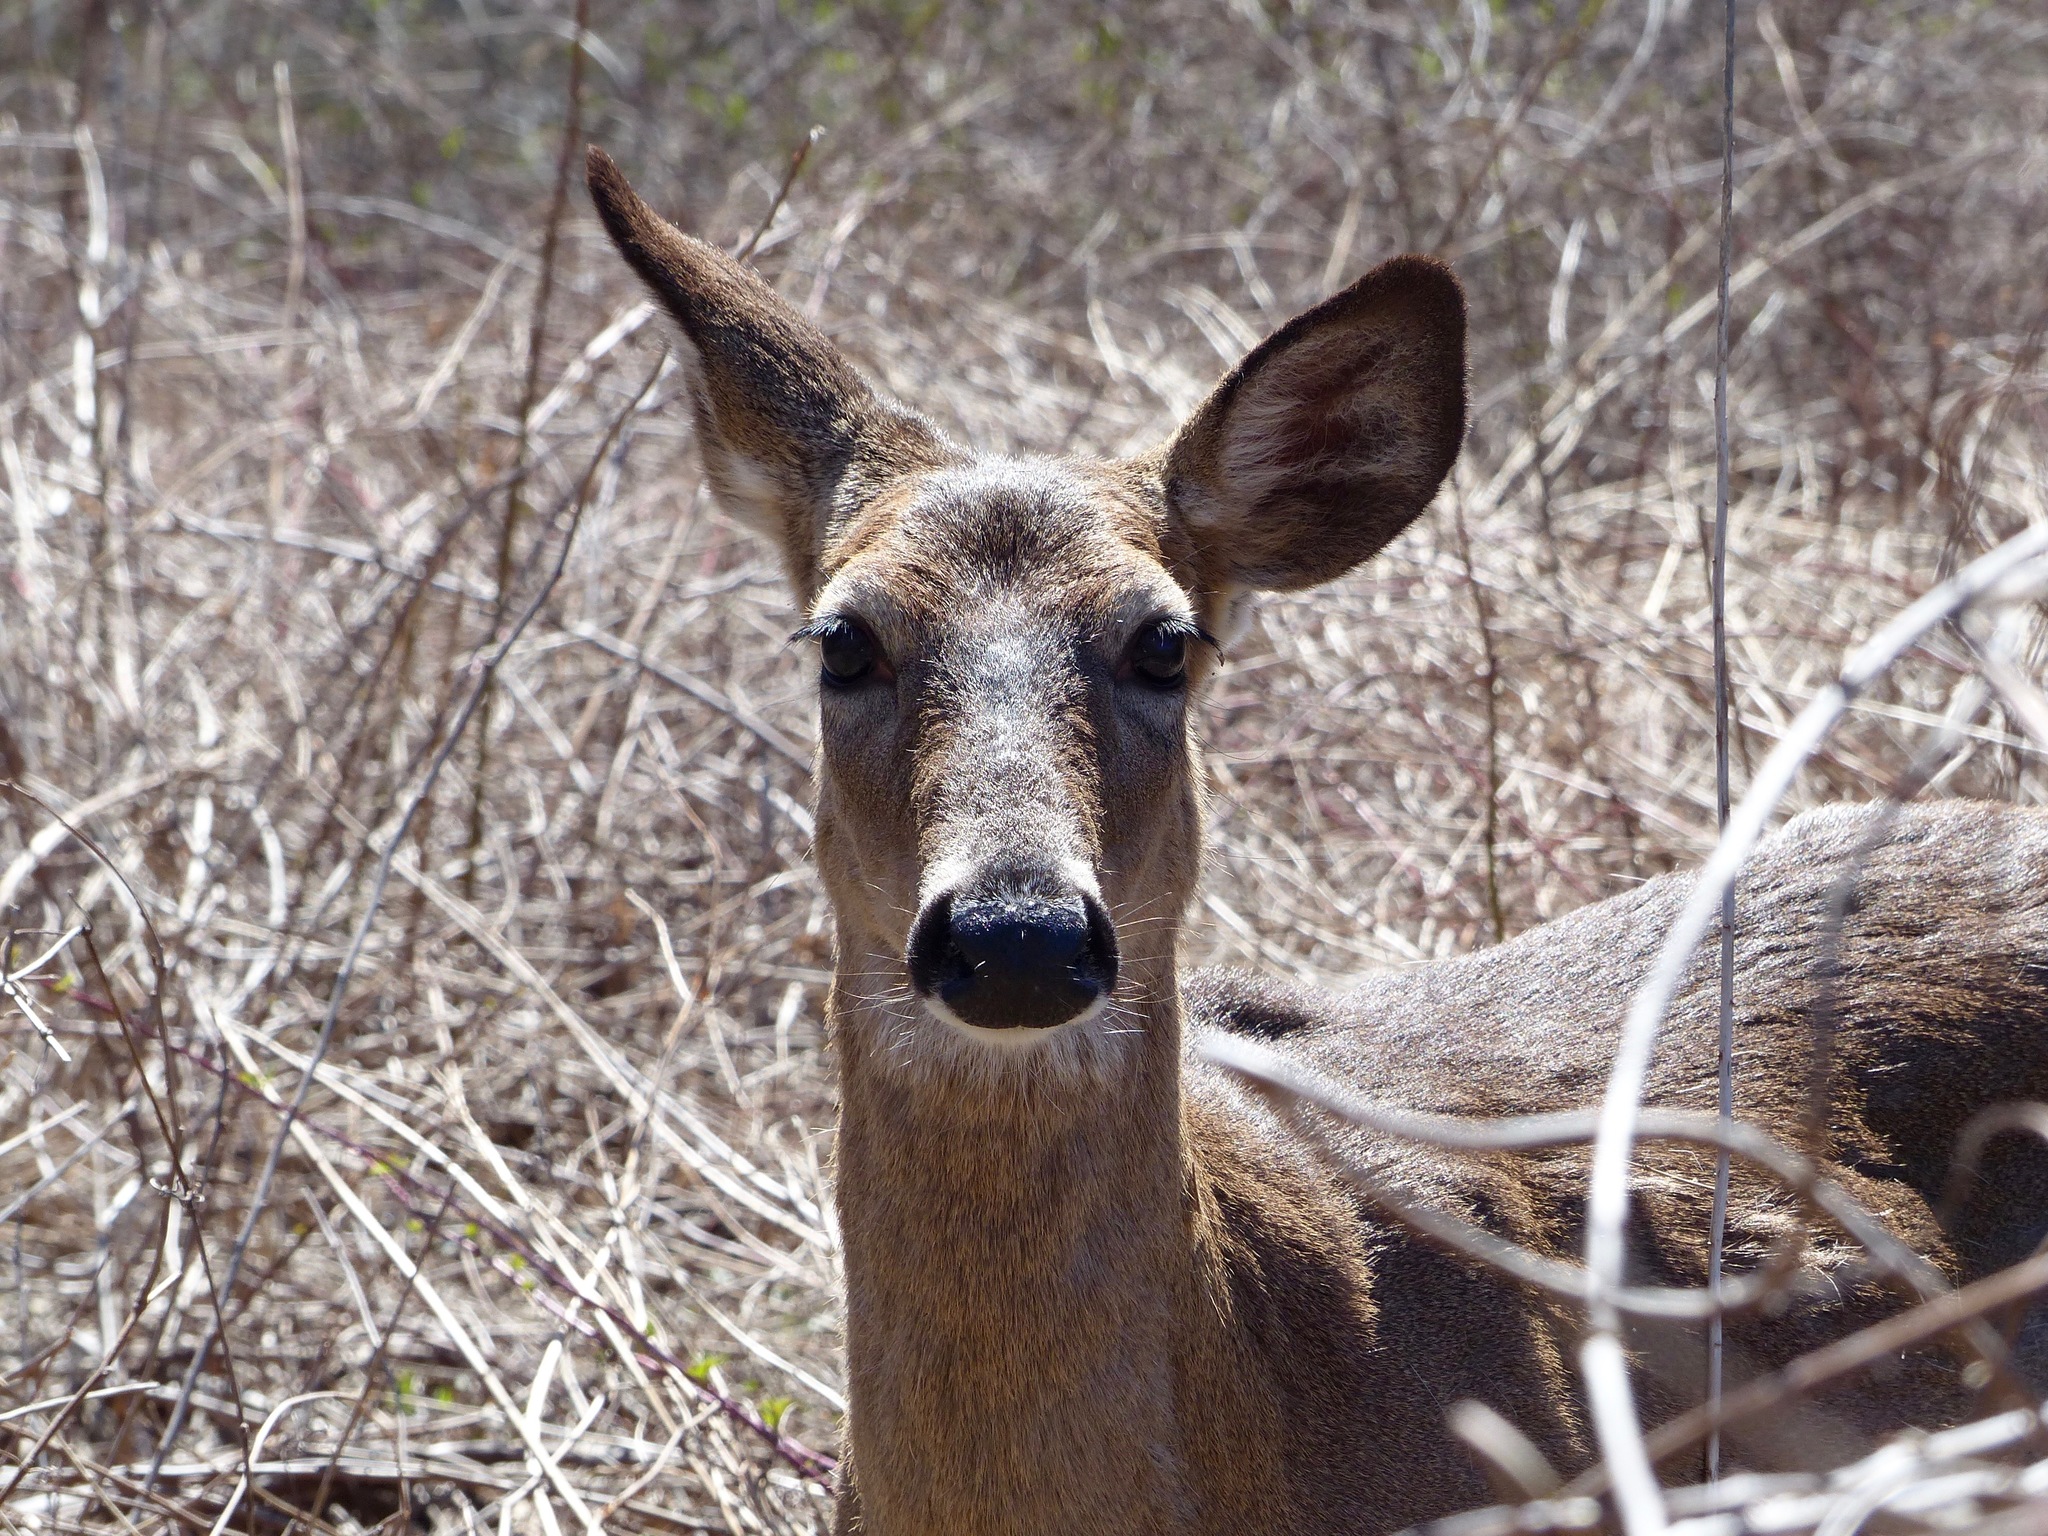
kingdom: Animalia
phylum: Chordata
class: Mammalia
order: Artiodactyla
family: Cervidae
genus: Odocoileus
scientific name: Odocoileus virginianus
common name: White-tailed deer
